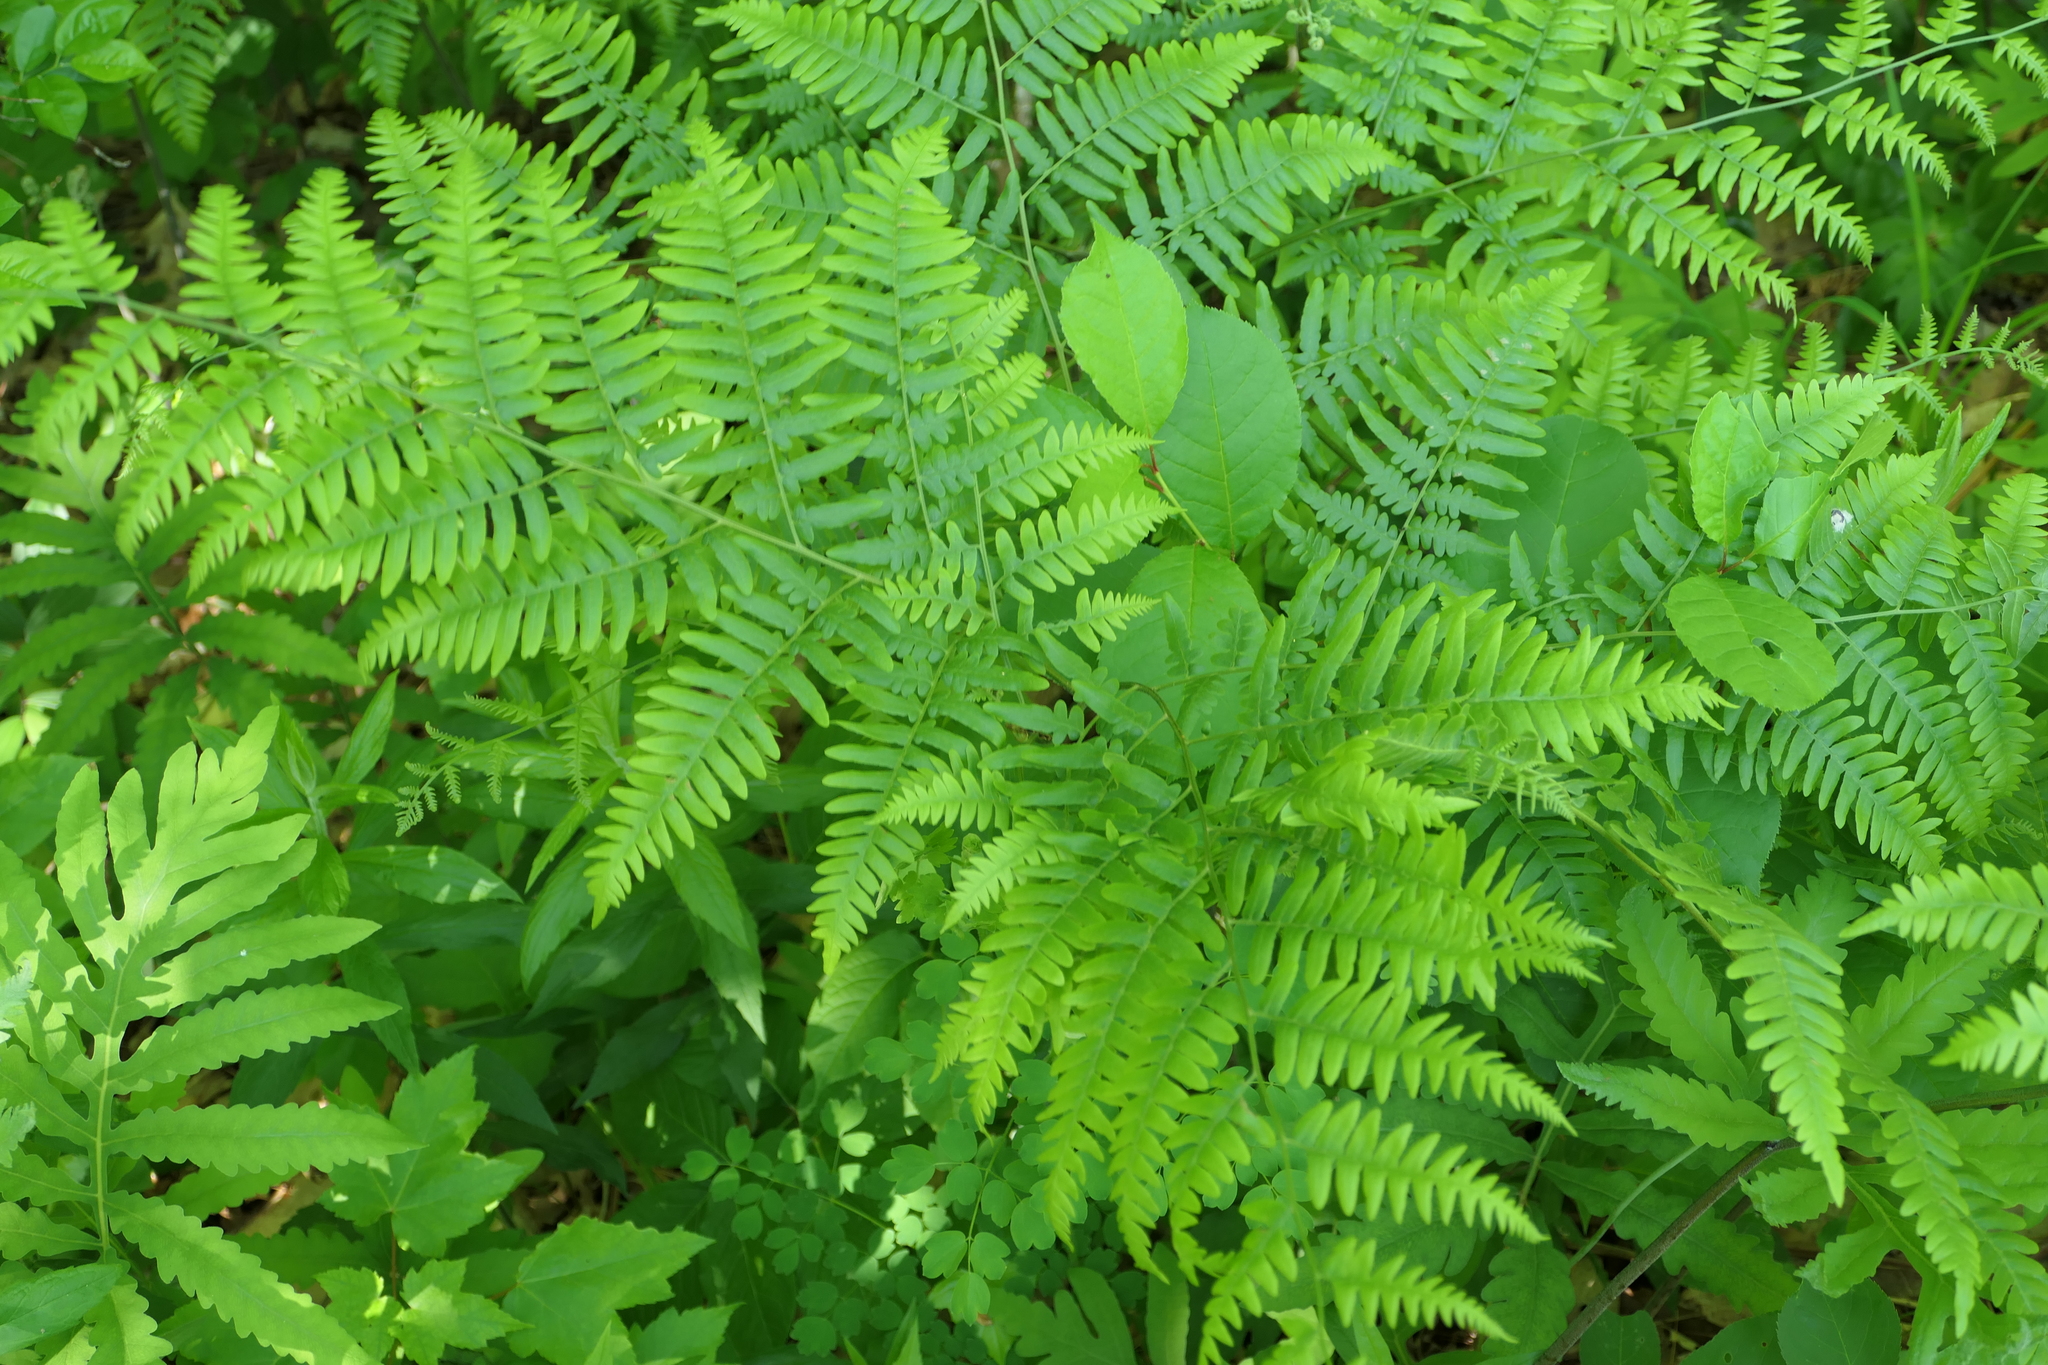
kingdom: Plantae
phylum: Tracheophyta
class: Polypodiopsida
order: Polypodiales
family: Dennstaedtiaceae
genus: Pteridium
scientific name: Pteridium aquilinum
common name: Bracken
